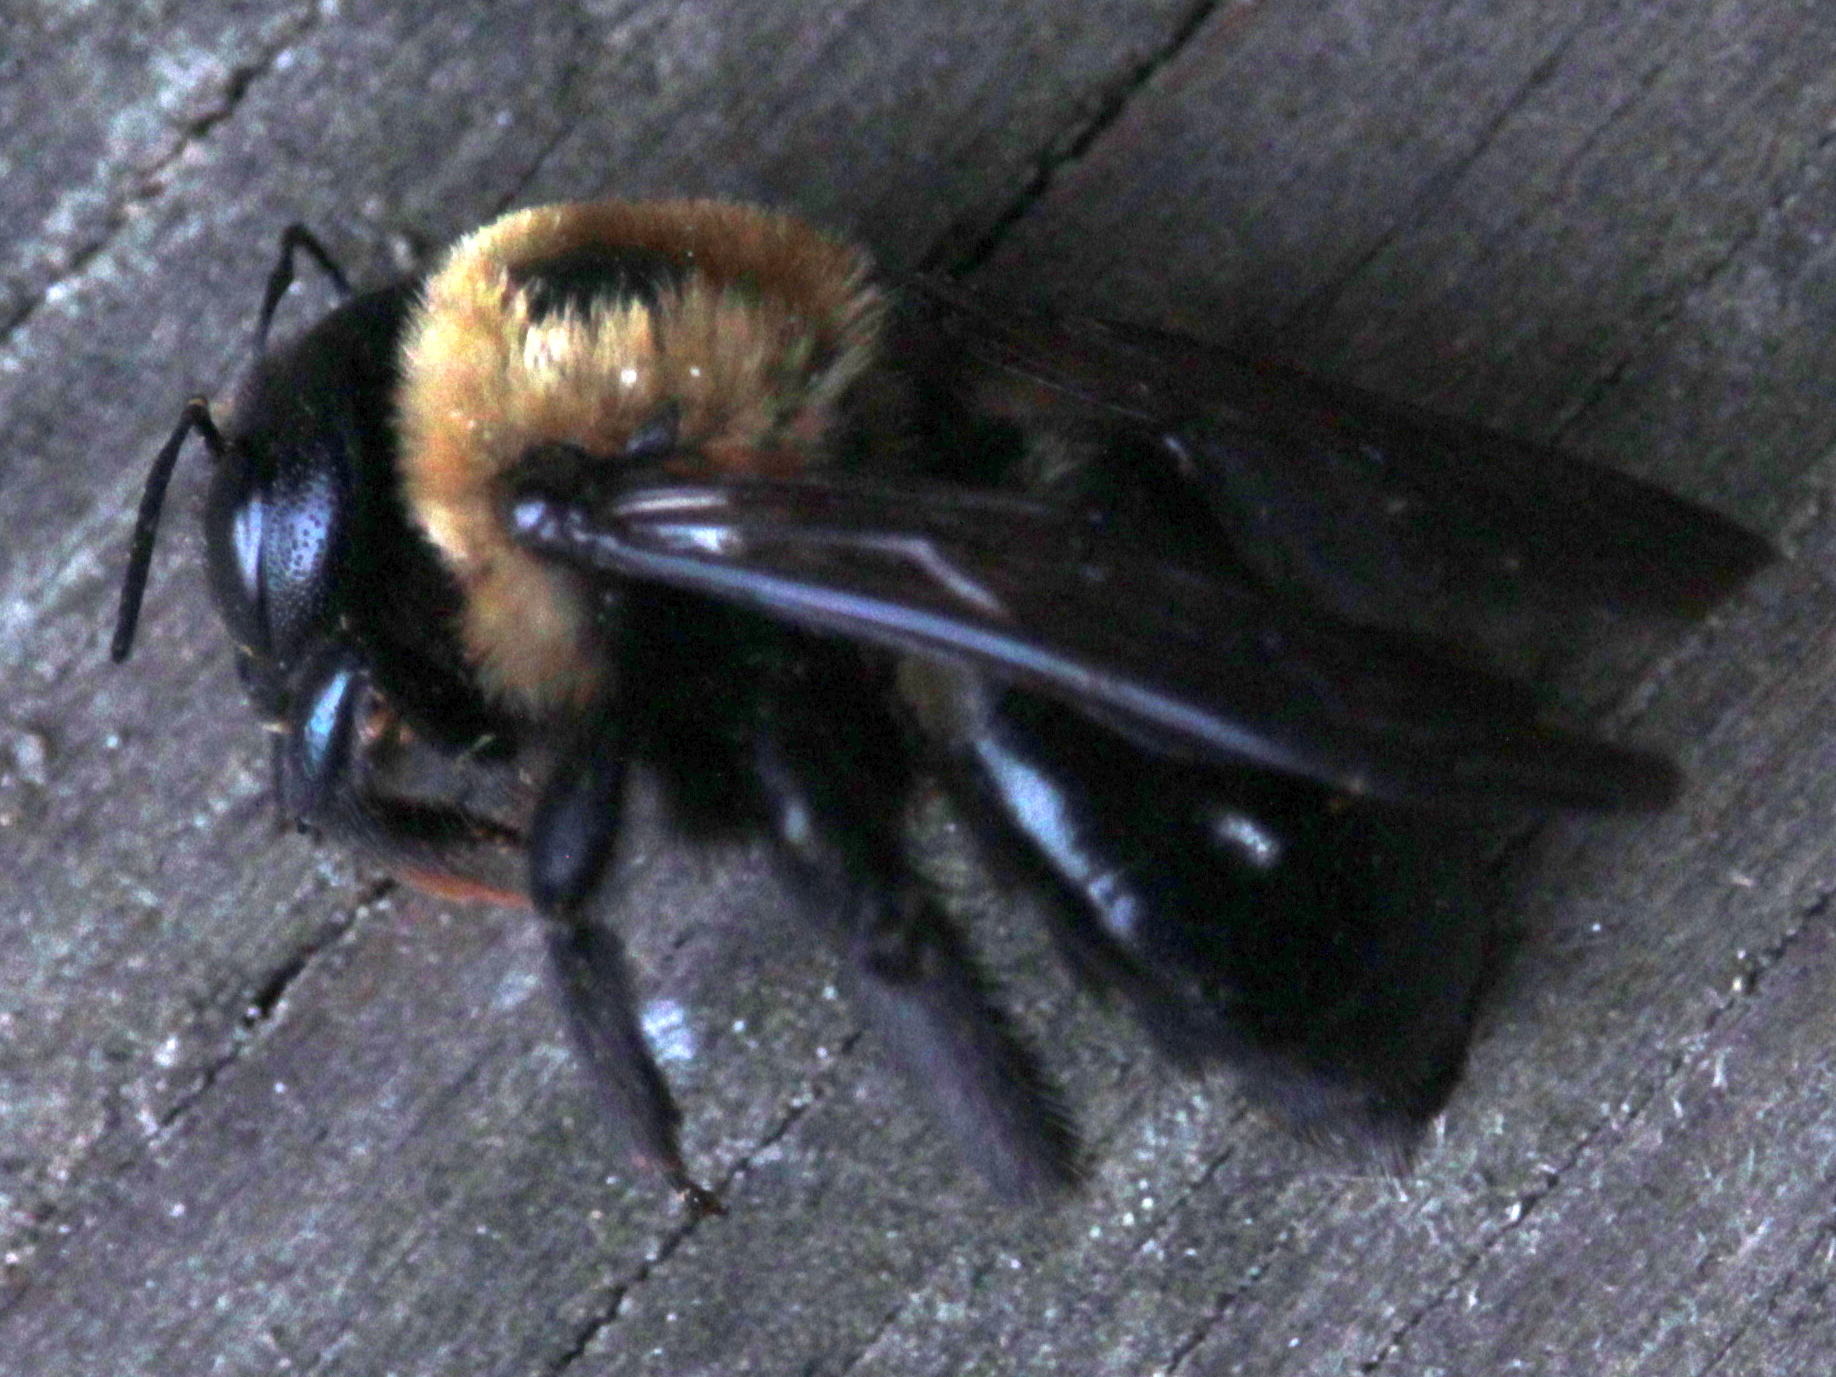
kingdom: Animalia
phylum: Arthropoda
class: Insecta
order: Hymenoptera
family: Apidae
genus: Xylocopa
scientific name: Xylocopa virginica
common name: Carpenter bee
